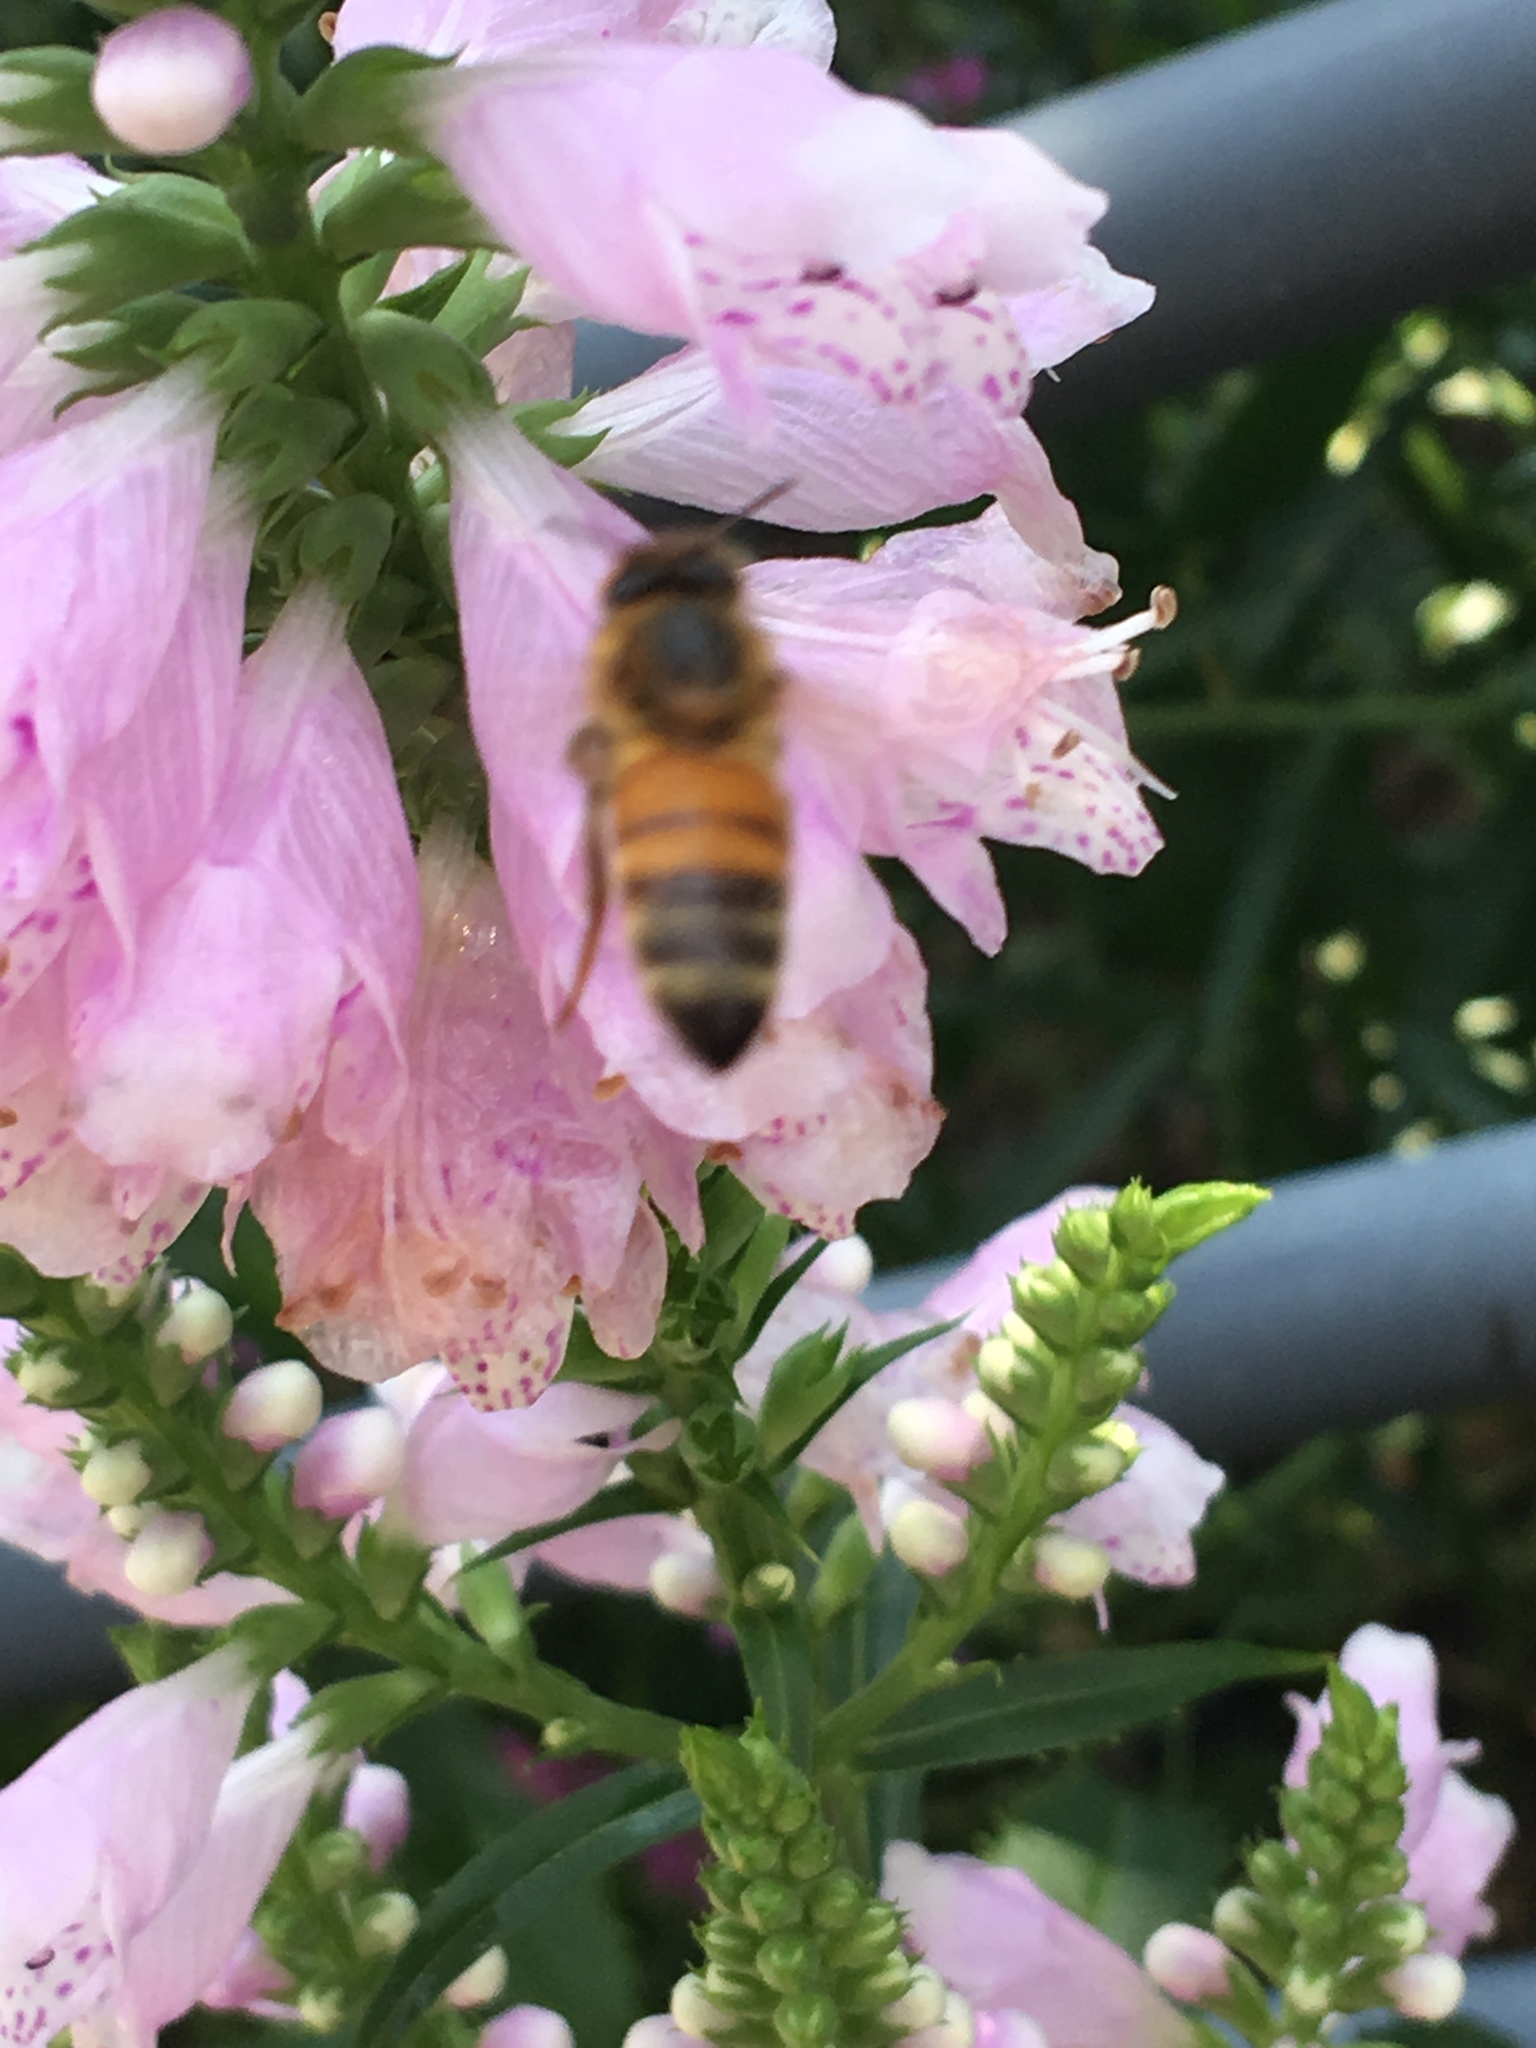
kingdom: Animalia
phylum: Arthropoda
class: Insecta
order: Hymenoptera
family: Apidae
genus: Apis
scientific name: Apis mellifera
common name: Honey bee
